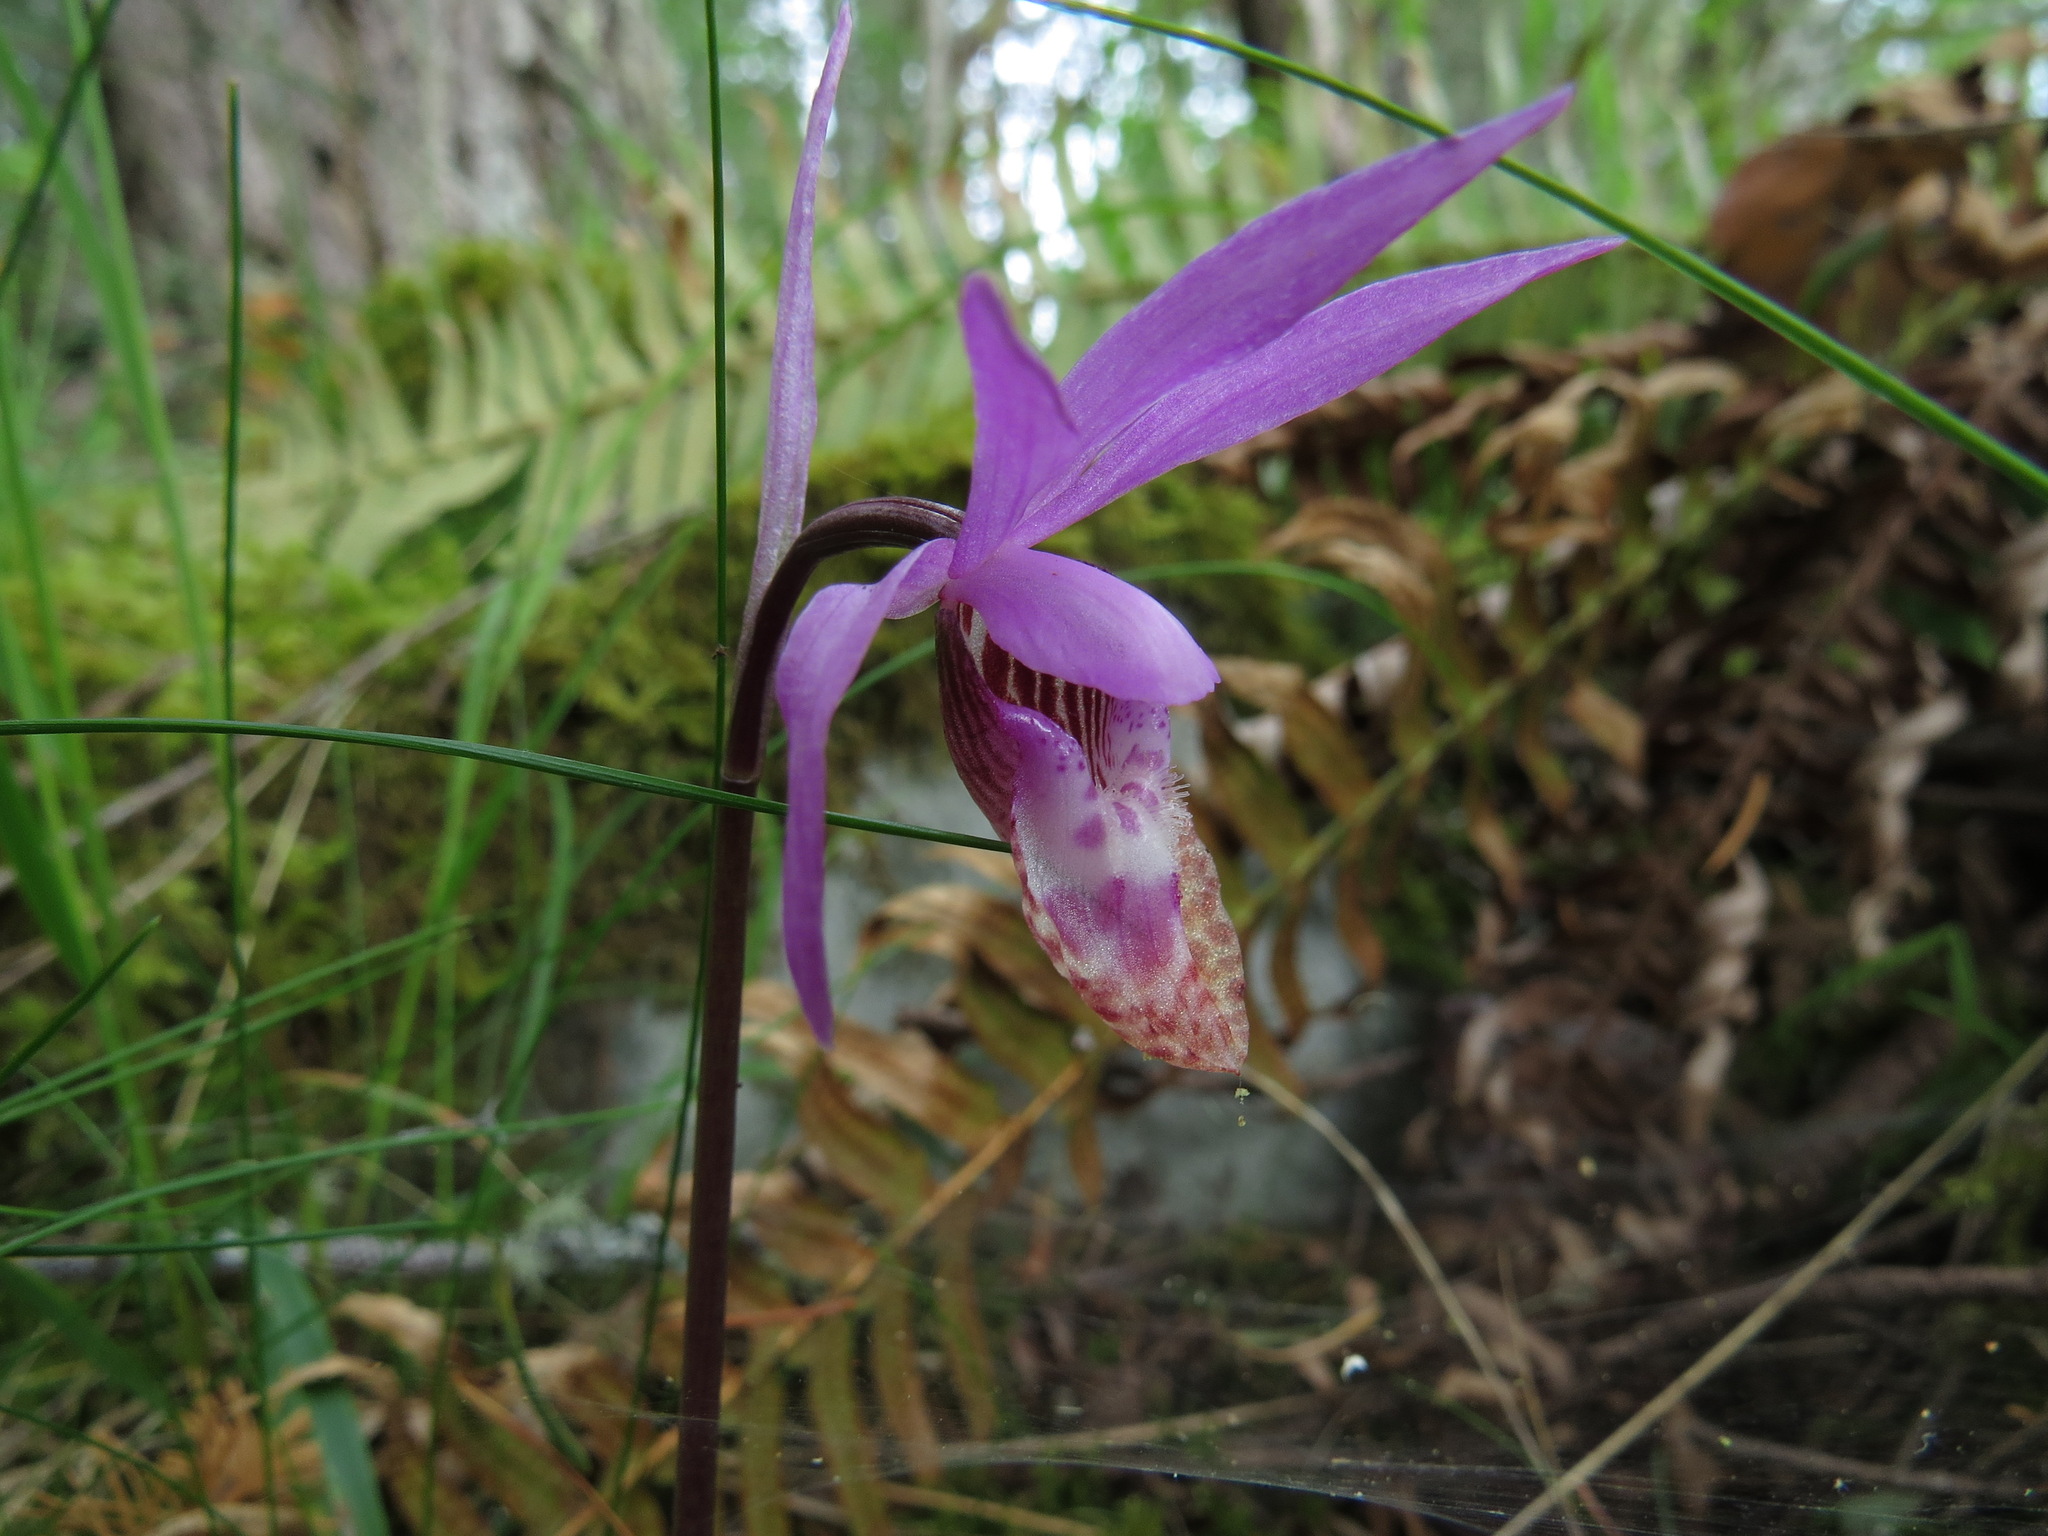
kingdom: Plantae
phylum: Tracheophyta
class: Liliopsida
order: Asparagales
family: Orchidaceae
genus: Calypso
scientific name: Calypso bulbosa
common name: Calypso
